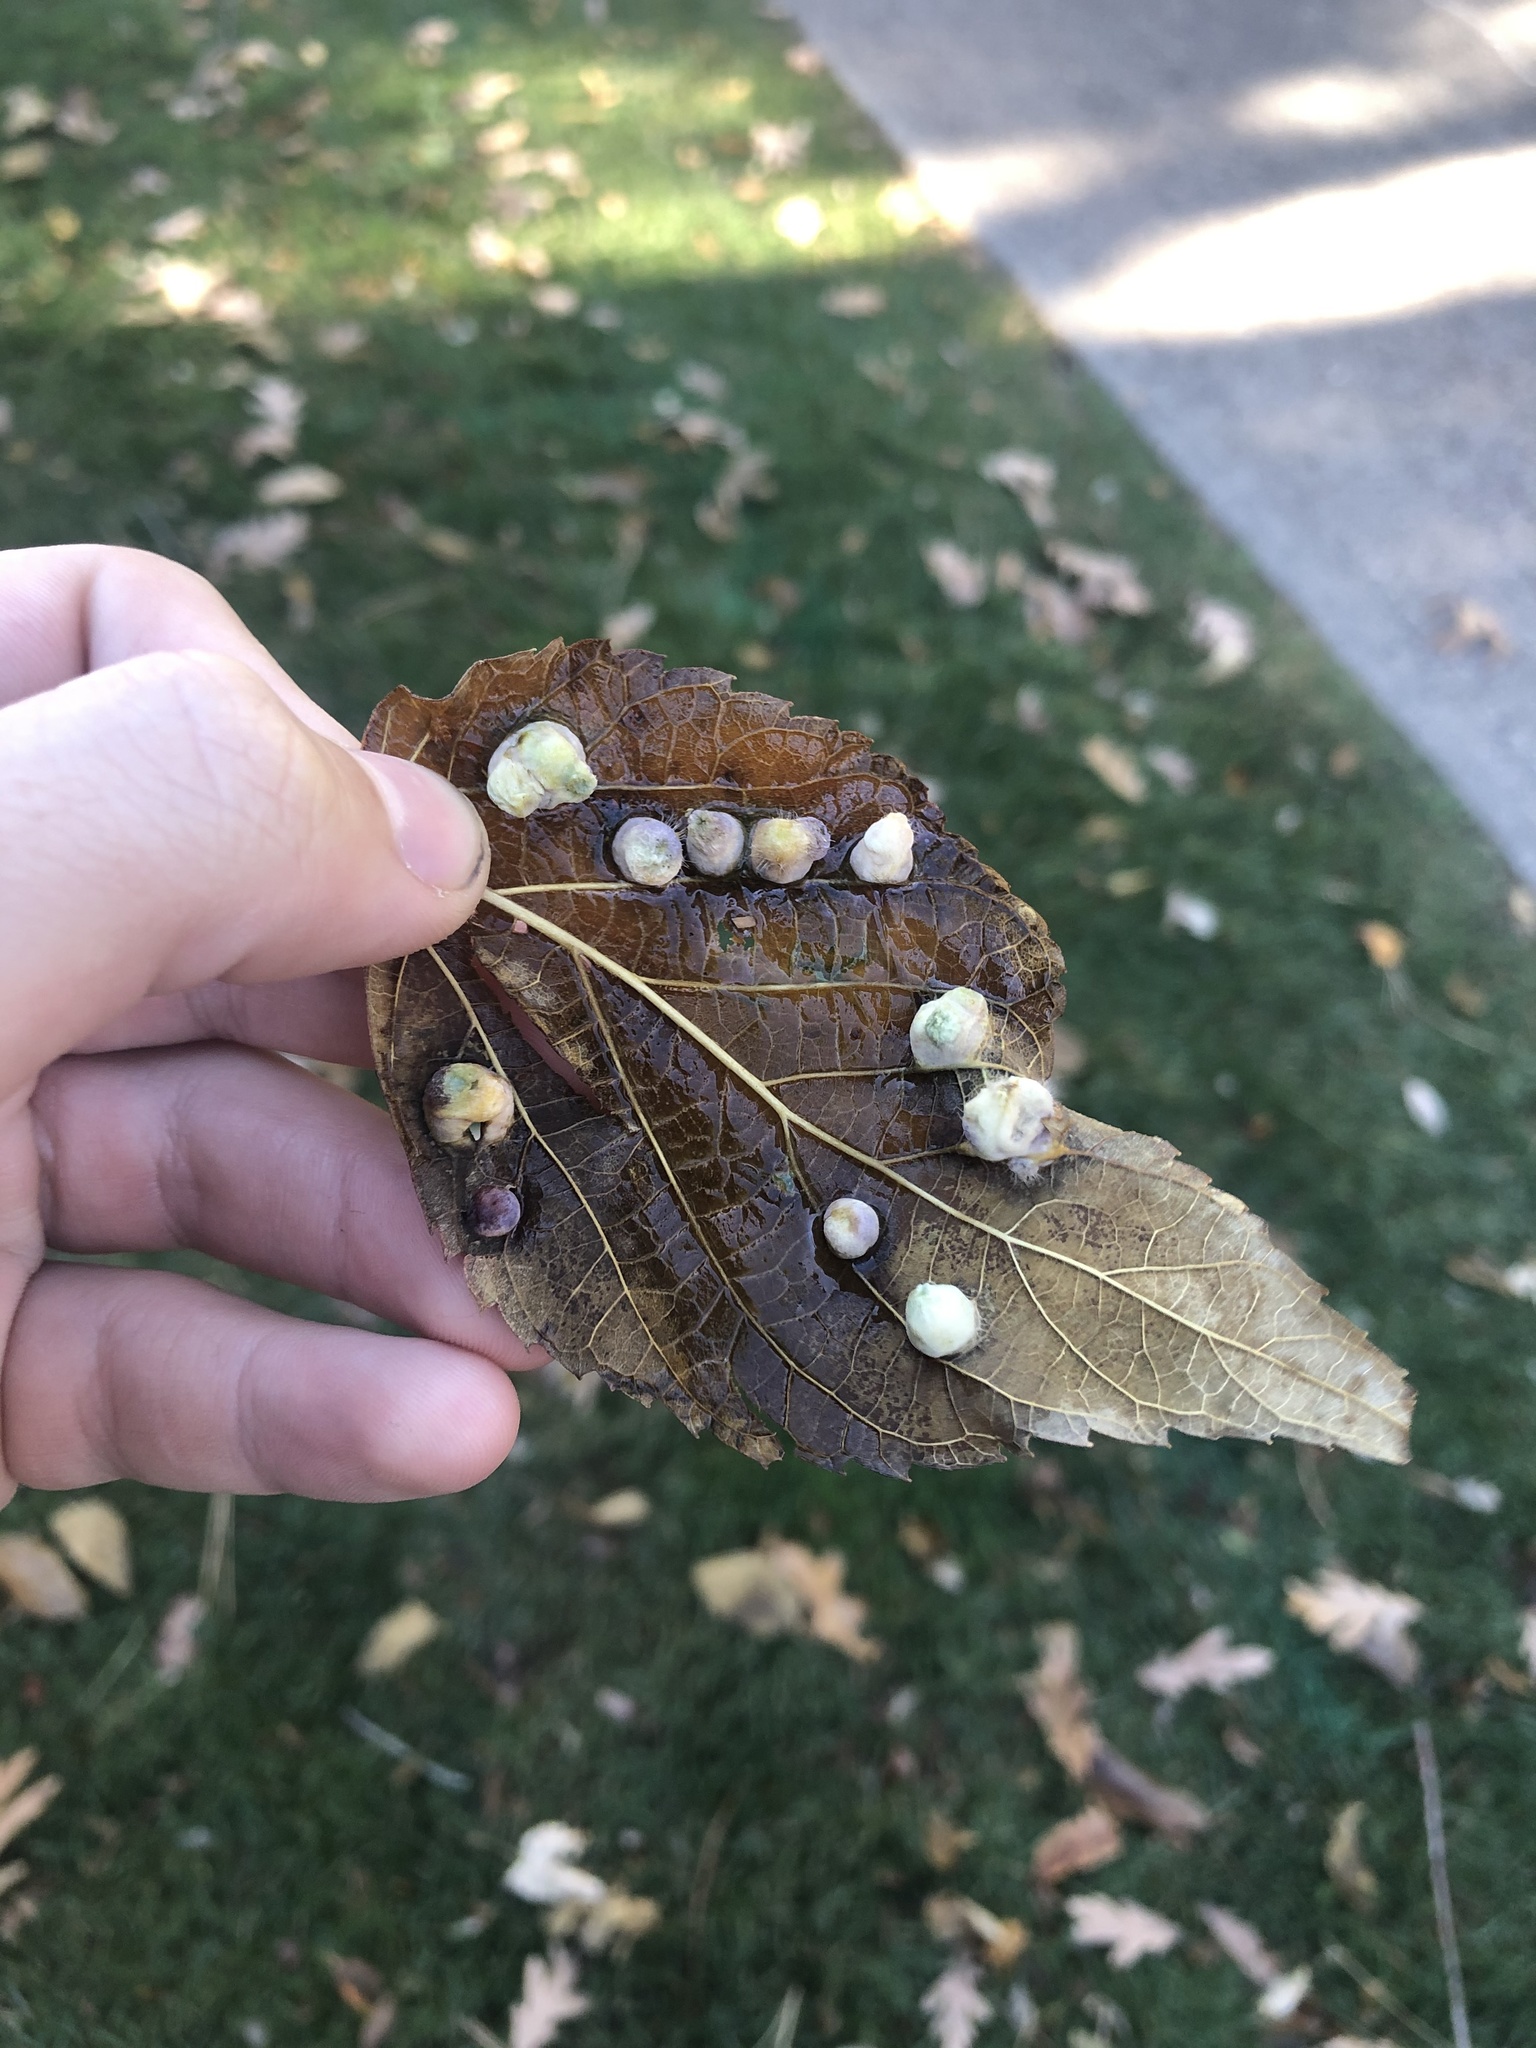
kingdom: Animalia
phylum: Arthropoda
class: Insecta
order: Hemiptera
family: Aphalaridae
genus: Pachypsylla
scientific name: Pachypsylla celtidismamma
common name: Hackberry nipplegall psyllid
